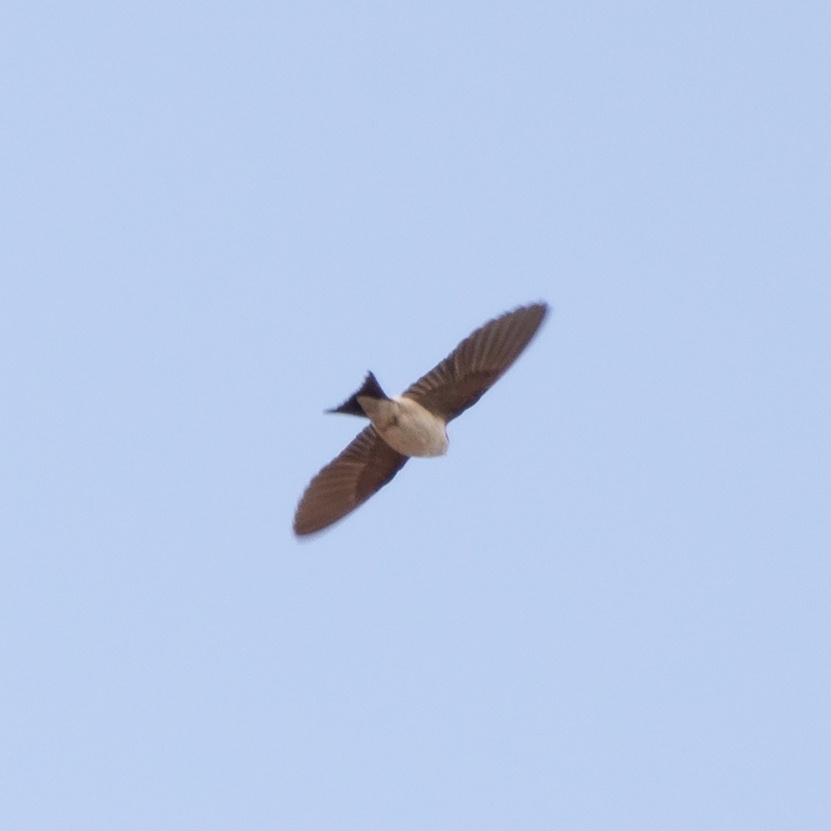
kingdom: Animalia
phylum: Chordata
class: Aves
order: Passeriformes
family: Hirundinidae
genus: Delichon
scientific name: Delichon urbicum
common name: Common house martin
